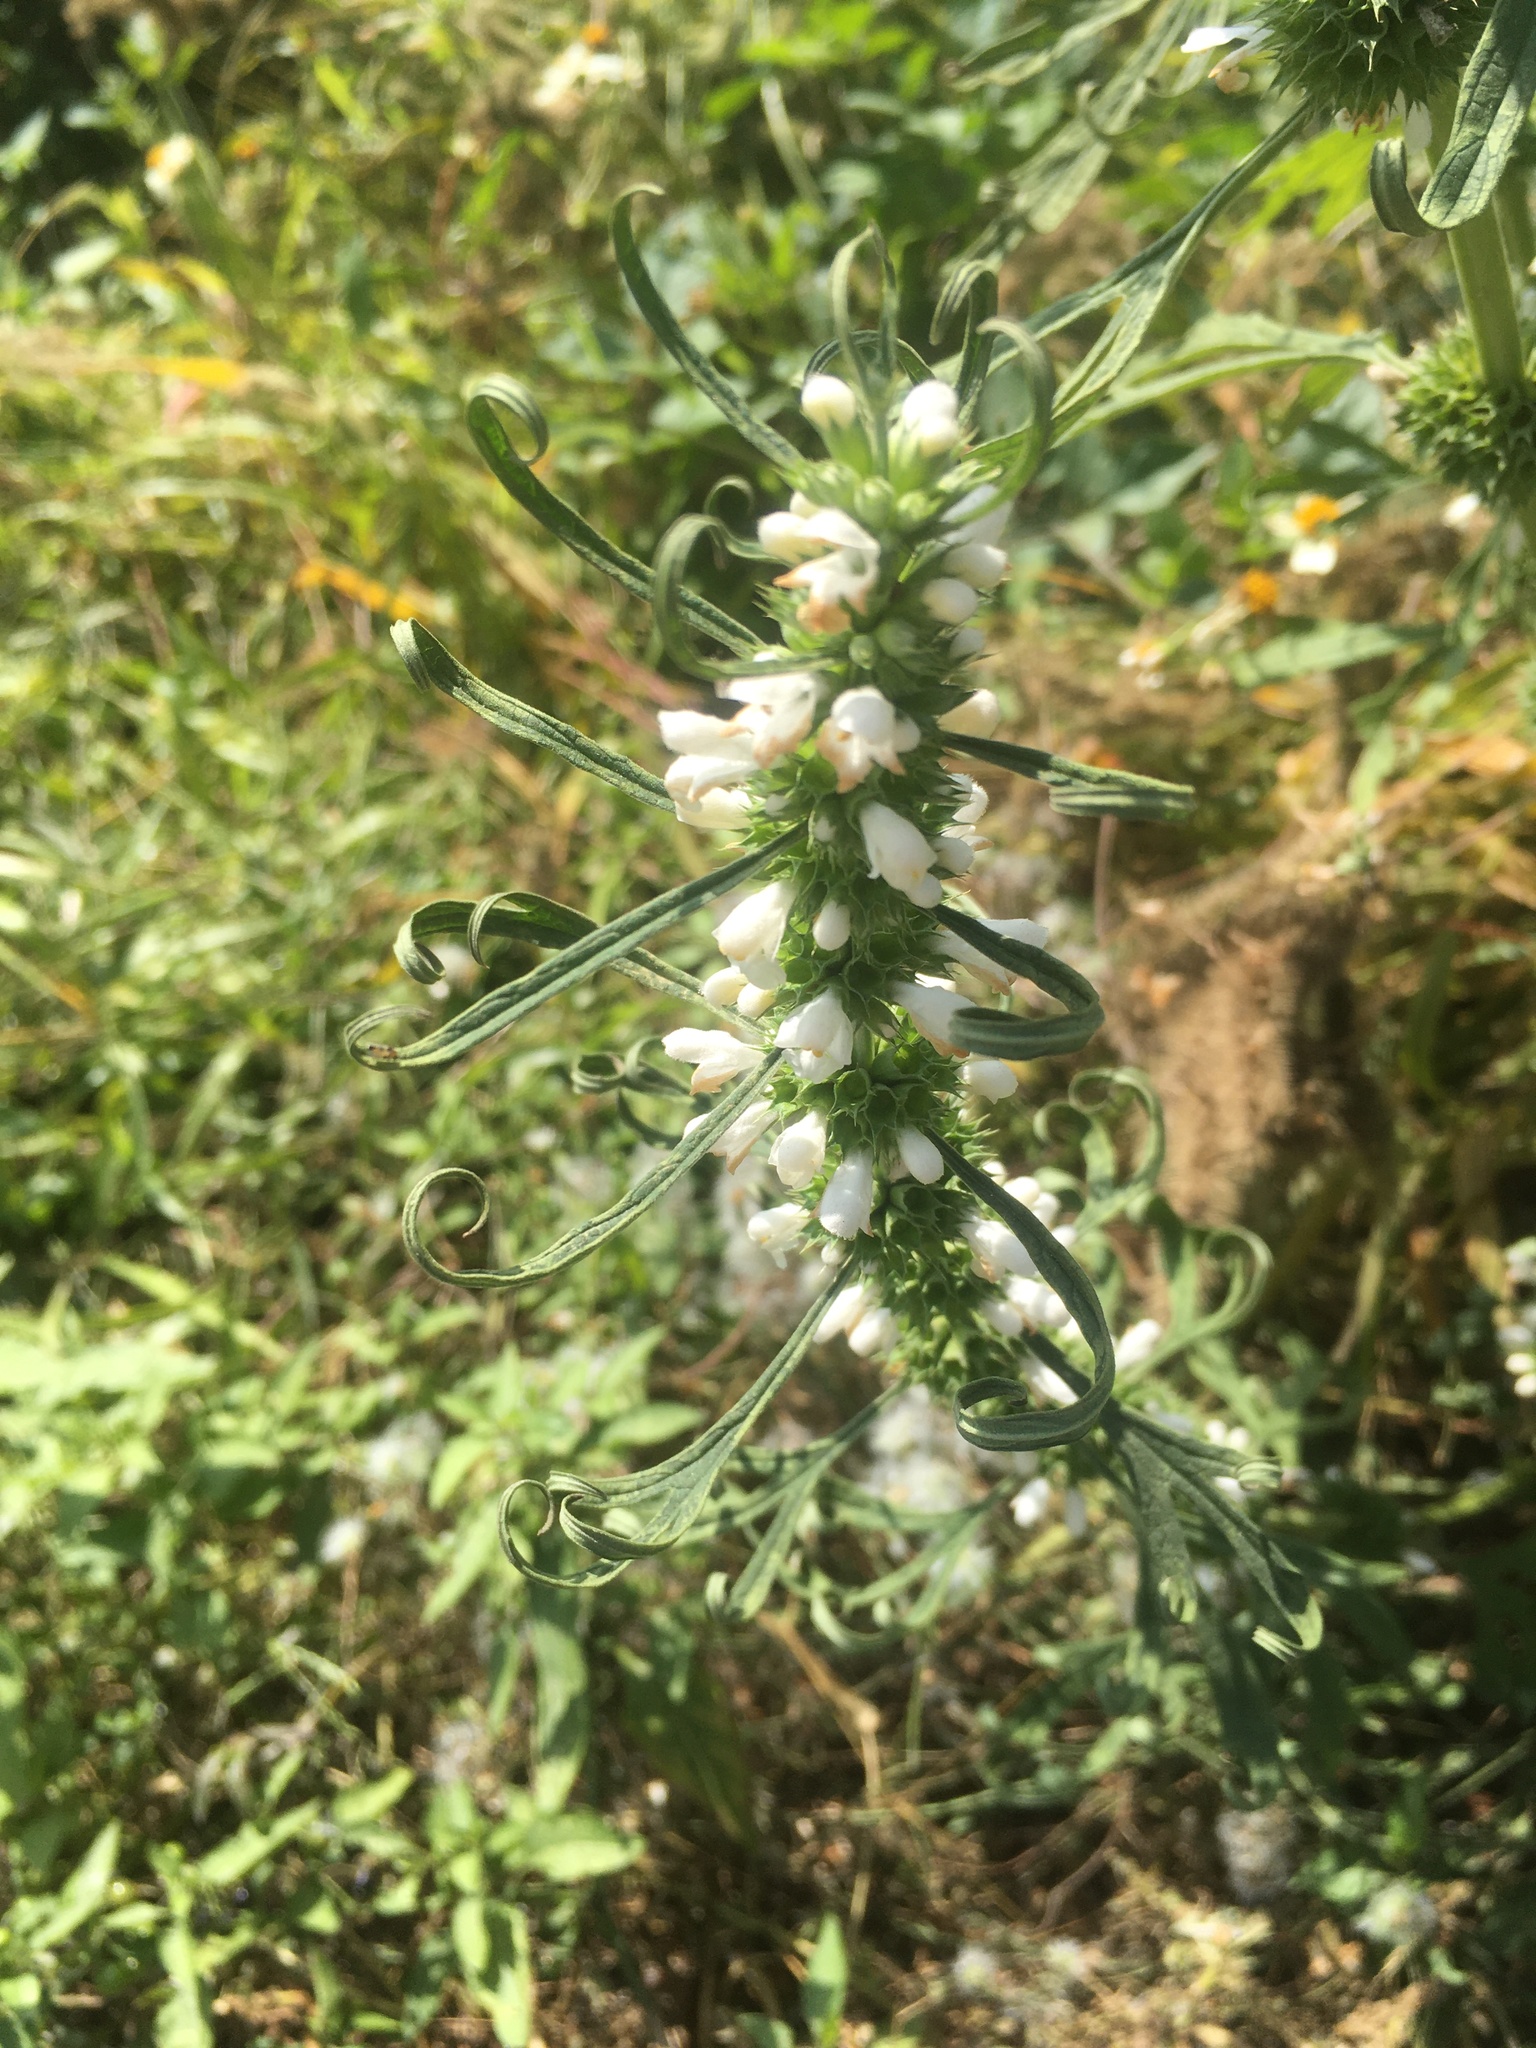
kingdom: Plantae
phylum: Tracheophyta
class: Magnoliopsida
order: Lamiales
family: Lamiaceae
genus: Leonurus
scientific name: Leonurus sibiricus
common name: Honeyweed
